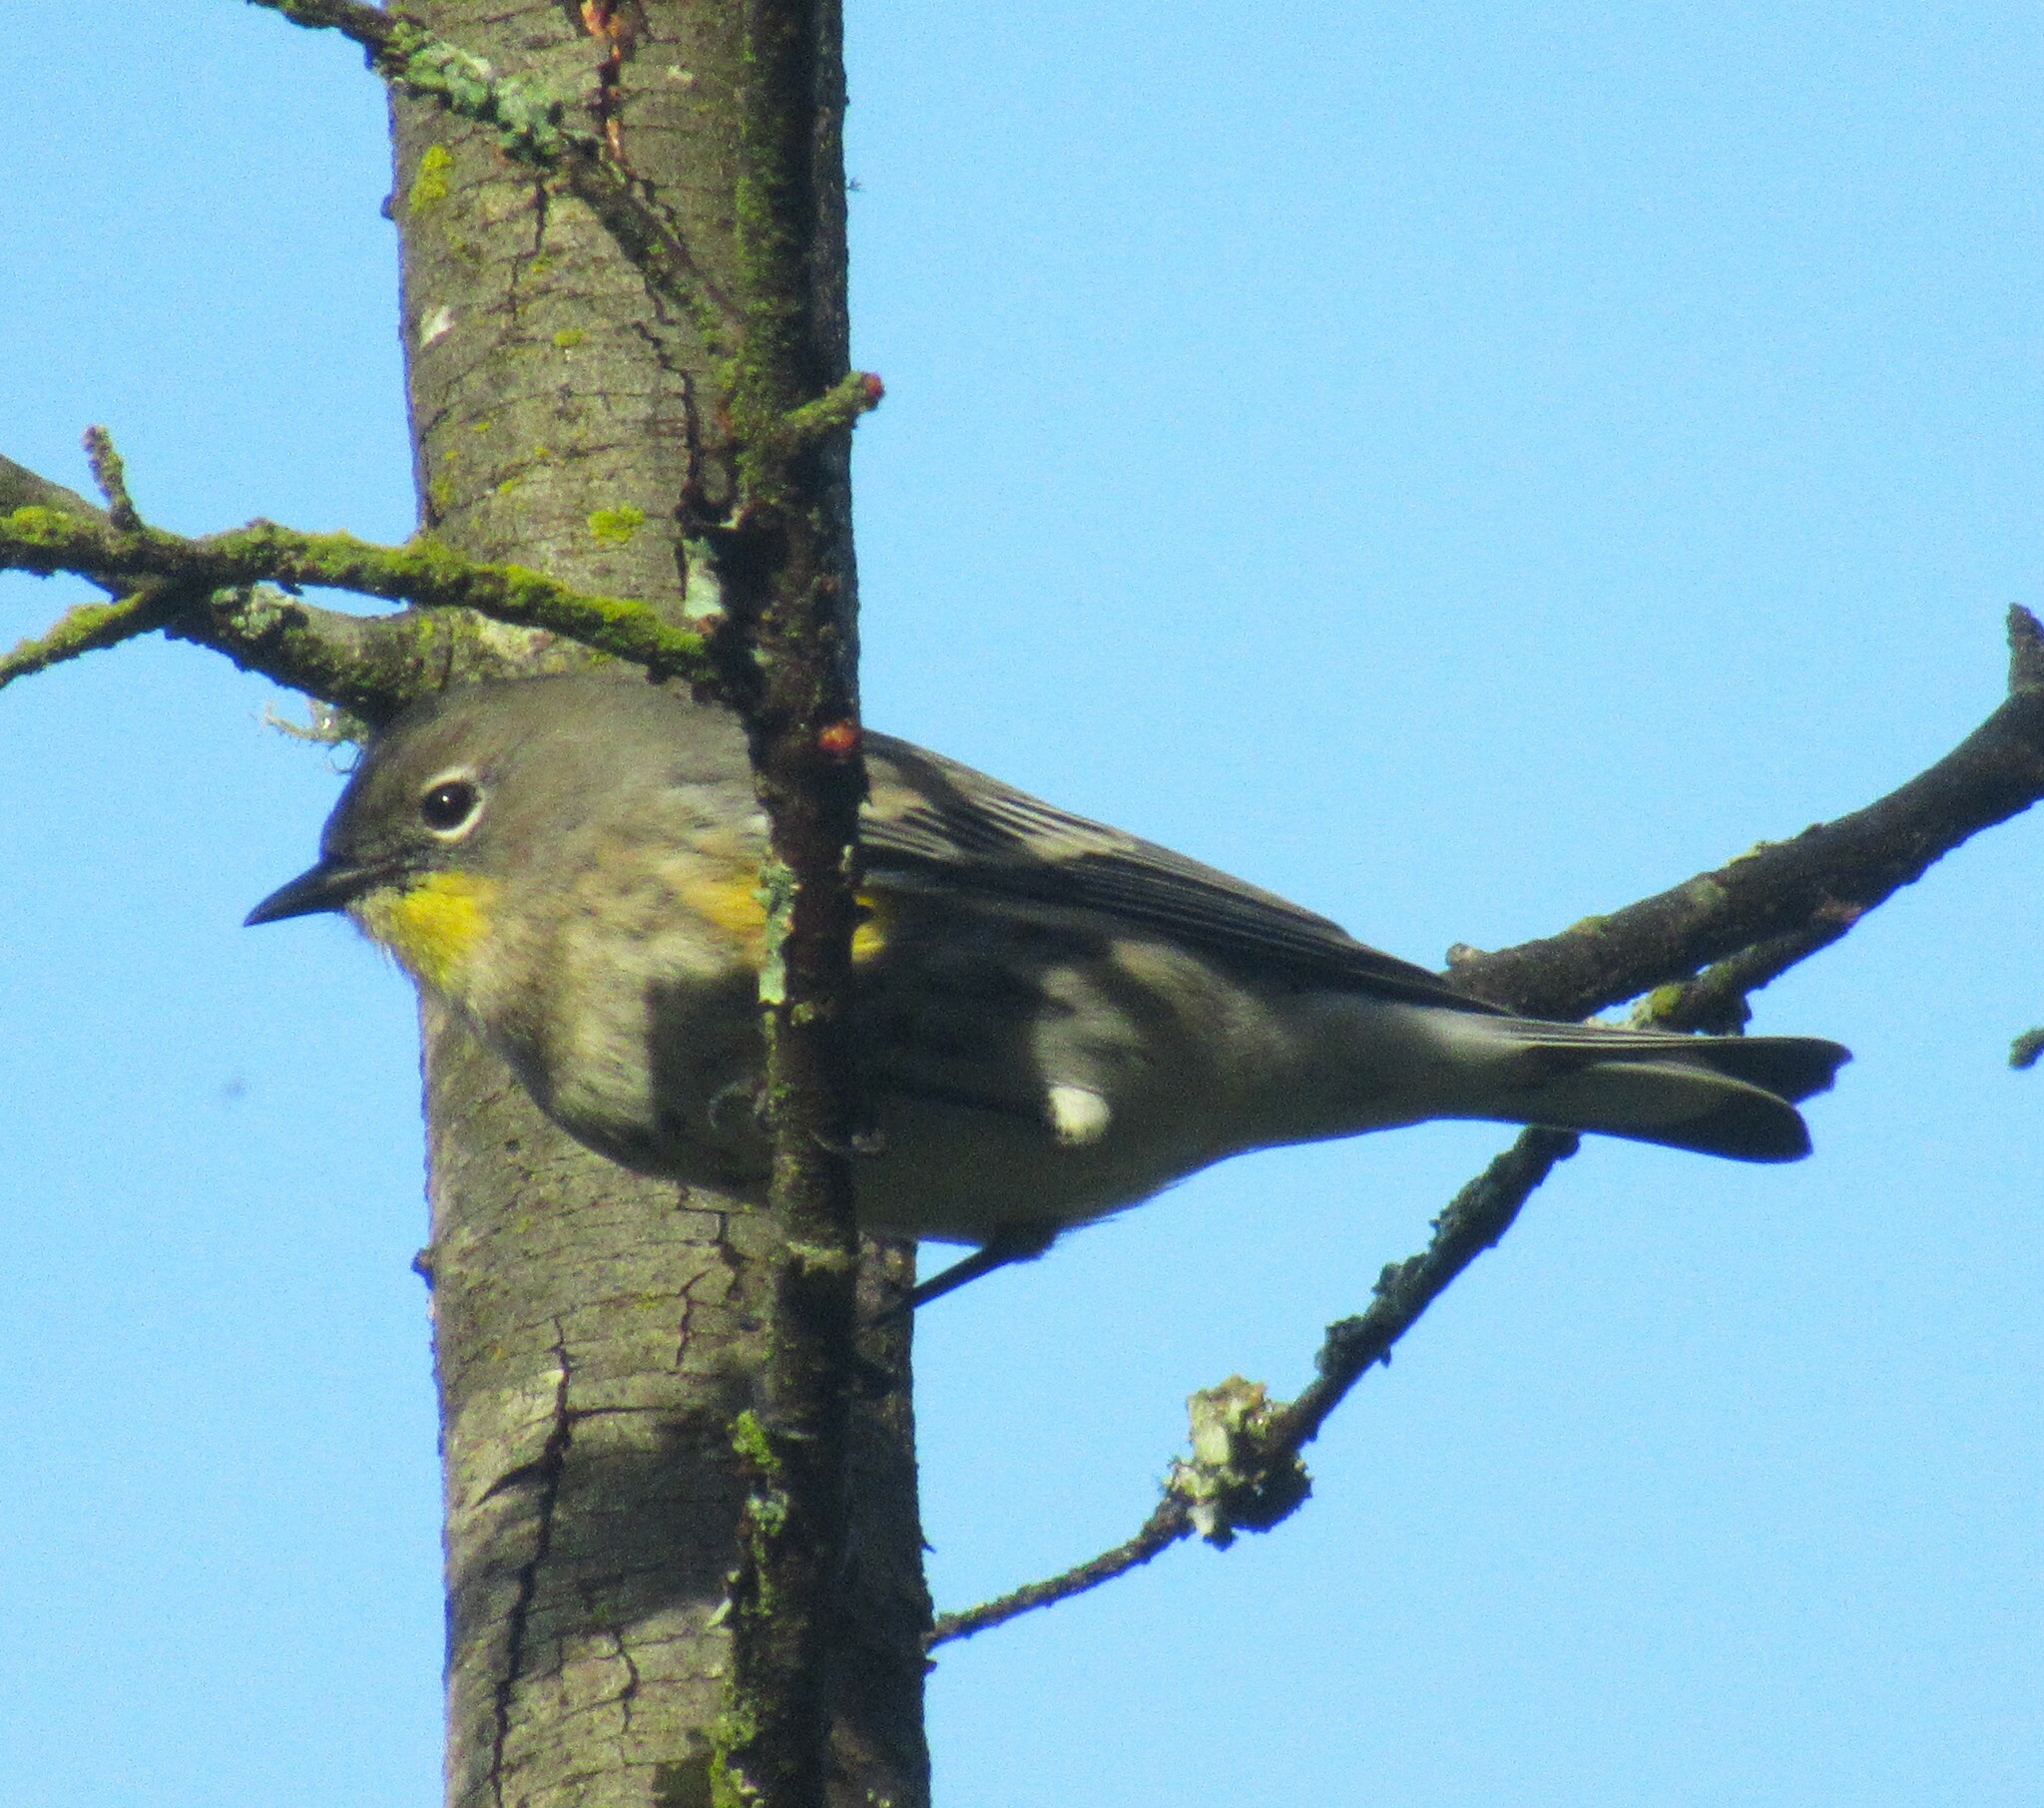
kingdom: Animalia
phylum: Chordata
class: Aves
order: Passeriformes
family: Parulidae
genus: Setophaga
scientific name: Setophaga auduboni
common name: Audubon's warbler
